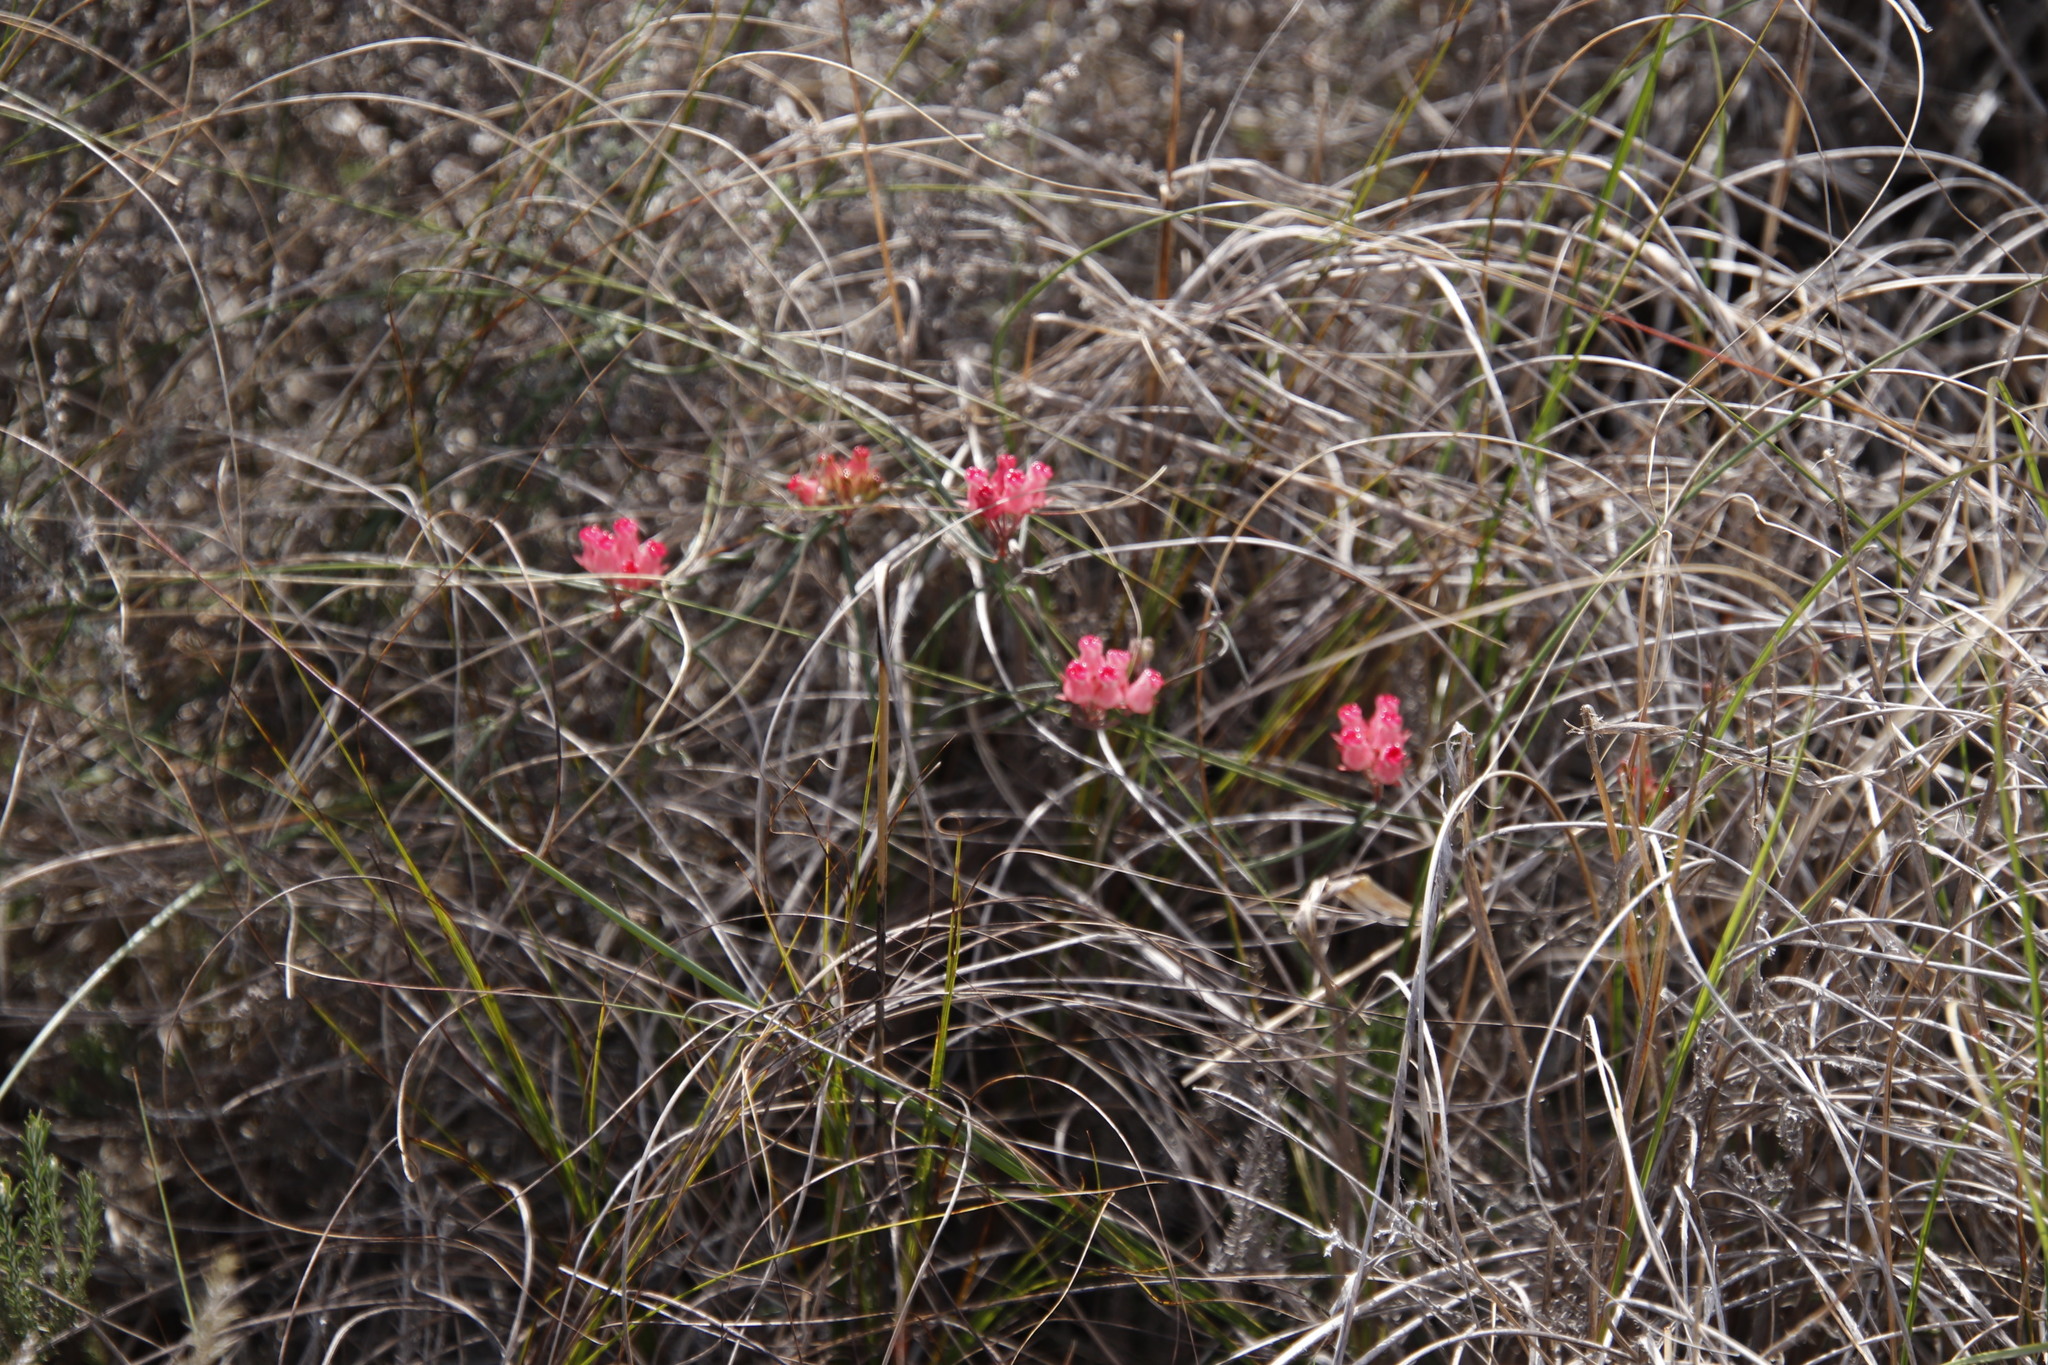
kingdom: Plantae
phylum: Tracheophyta
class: Magnoliopsida
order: Gentianales
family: Apocynaceae
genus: Microloma
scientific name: Microloma tenuifolium
